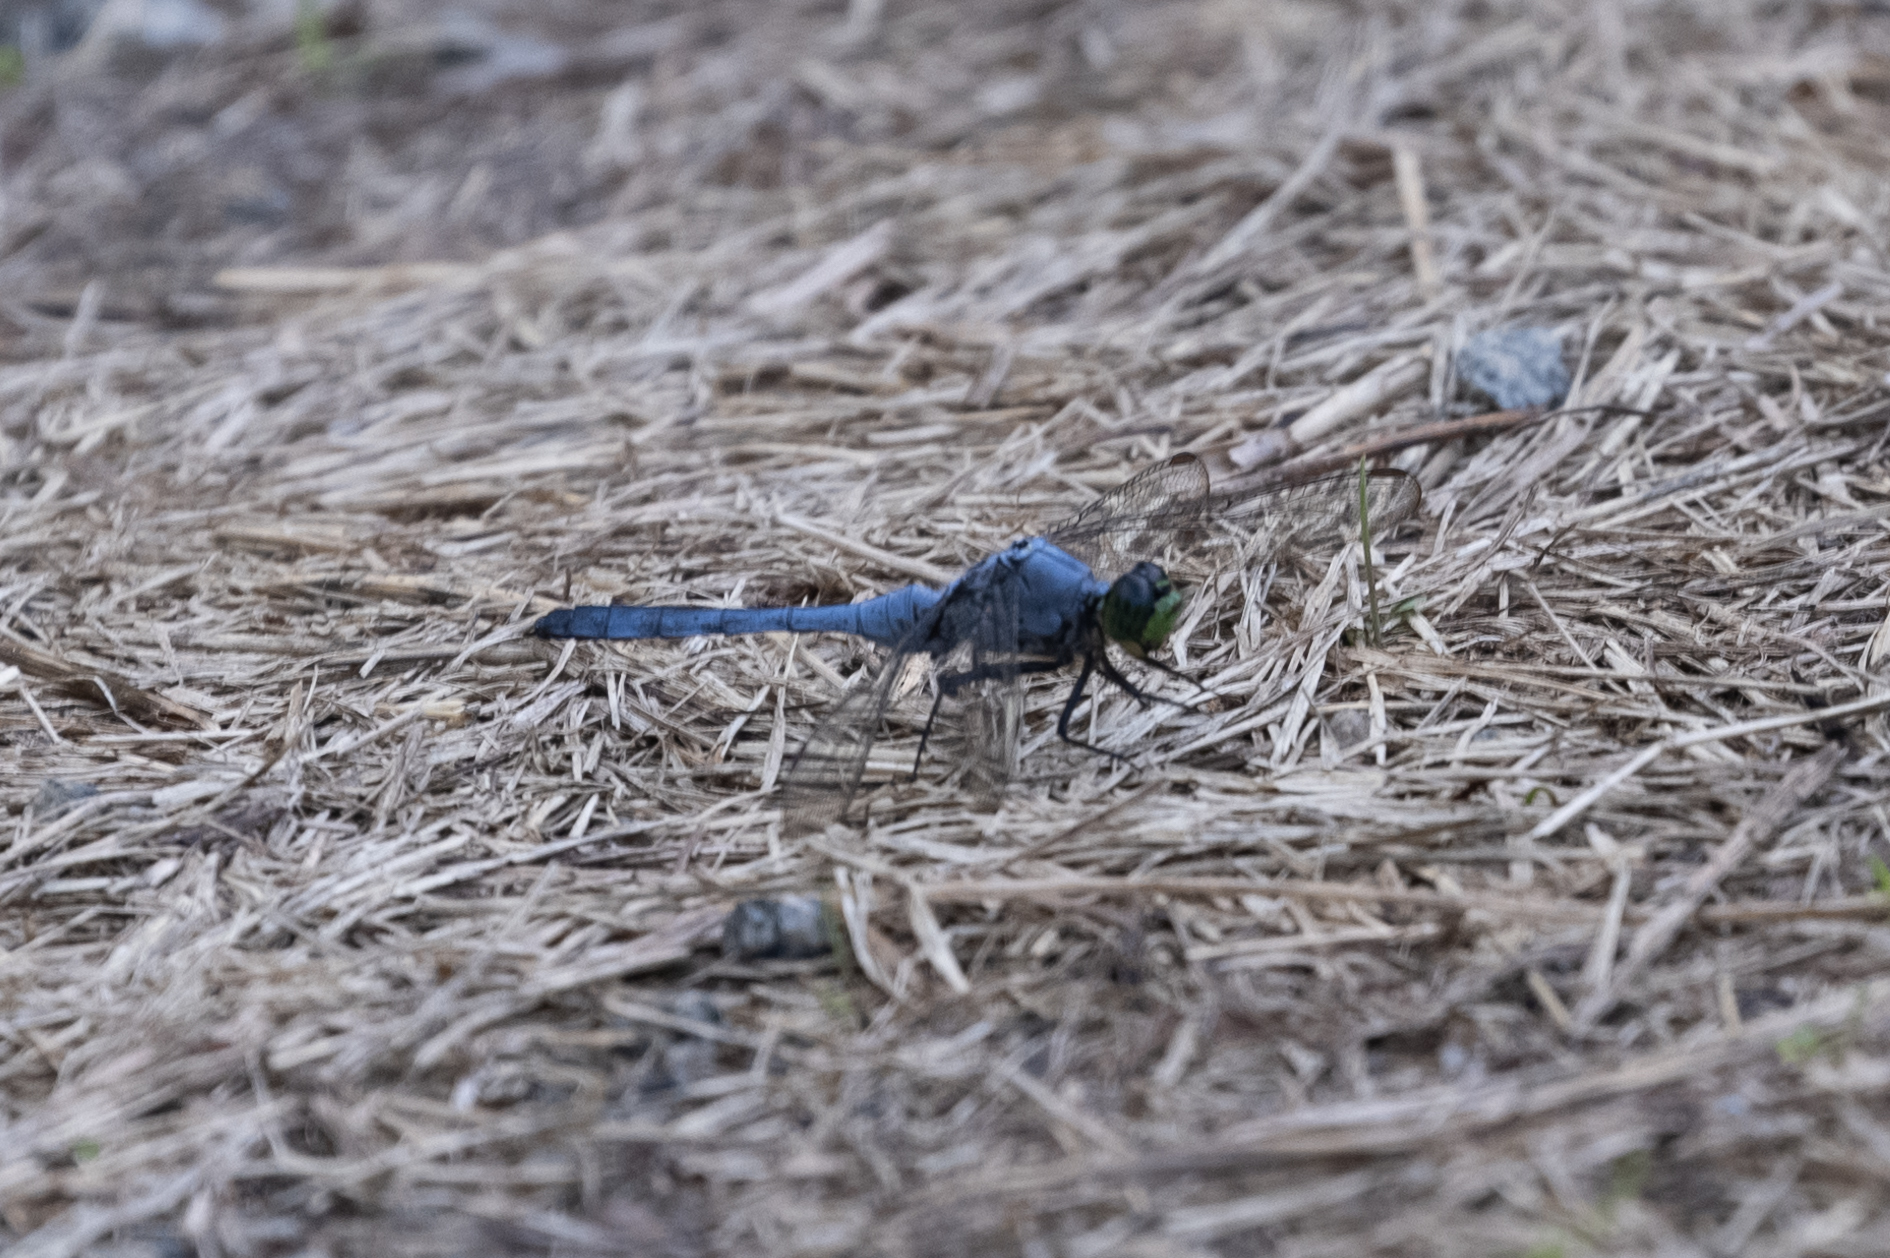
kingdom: Animalia
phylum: Arthropoda
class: Insecta
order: Odonata
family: Libellulidae
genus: Erythemis
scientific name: Erythemis simplicicollis
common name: Eastern pondhawk
